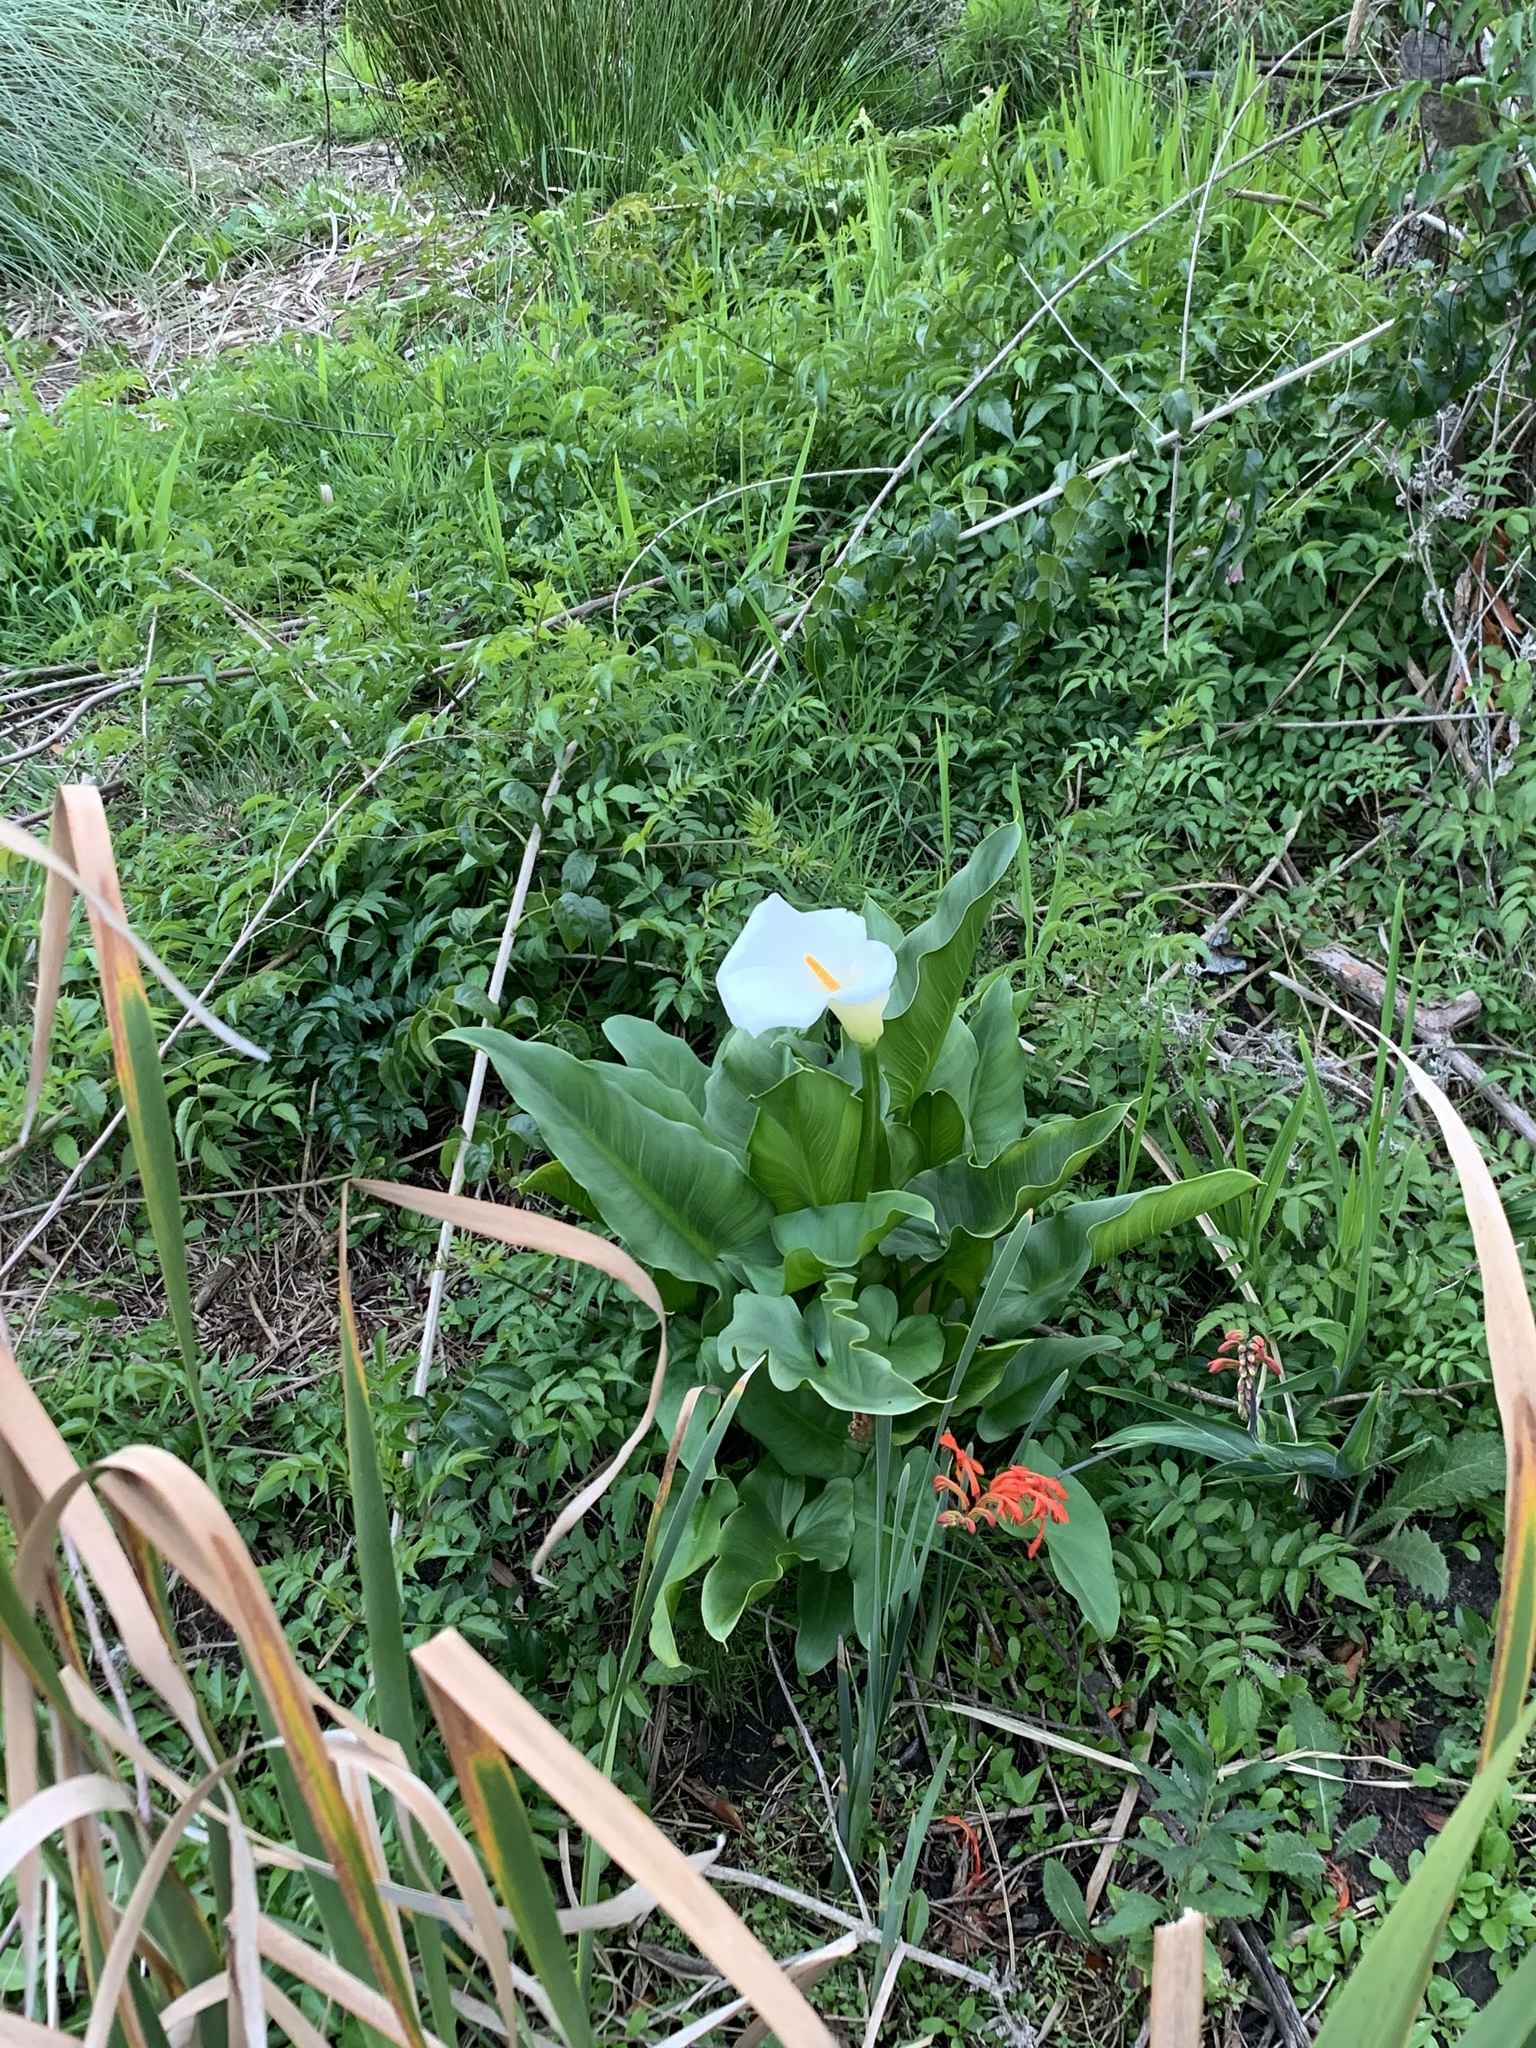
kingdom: Plantae
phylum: Tracheophyta
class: Liliopsida
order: Alismatales
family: Araceae
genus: Zantedeschia
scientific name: Zantedeschia aethiopica
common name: Altar-lily
